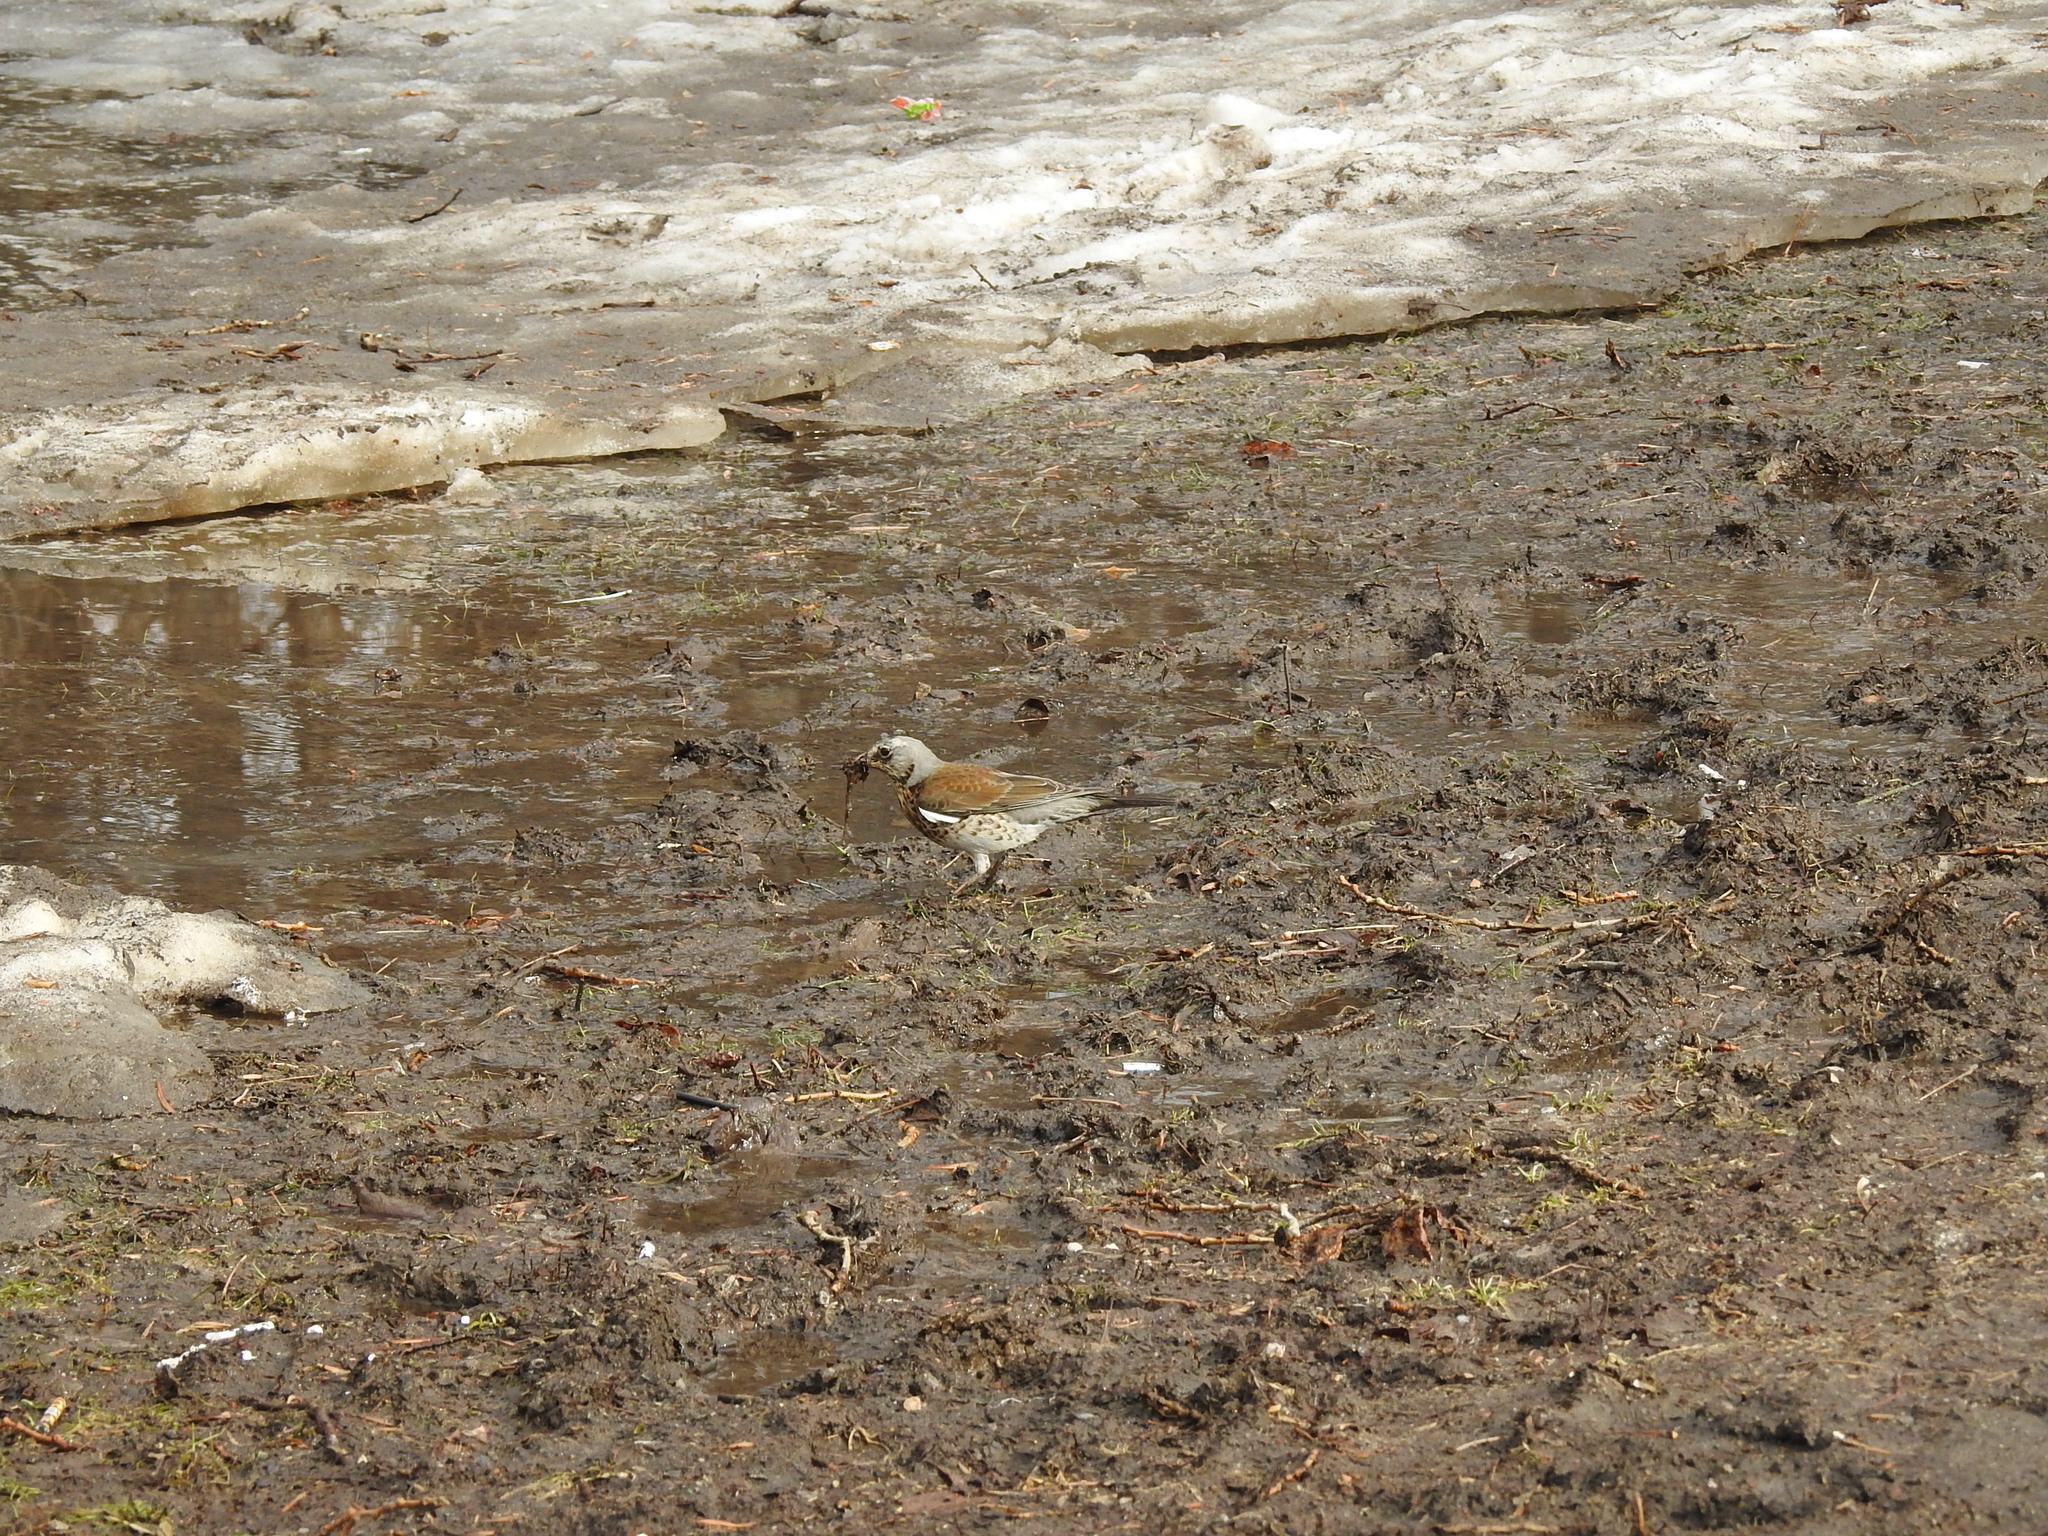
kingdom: Animalia
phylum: Chordata
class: Aves
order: Passeriformes
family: Turdidae
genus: Turdus
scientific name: Turdus pilaris
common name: Fieldfare
